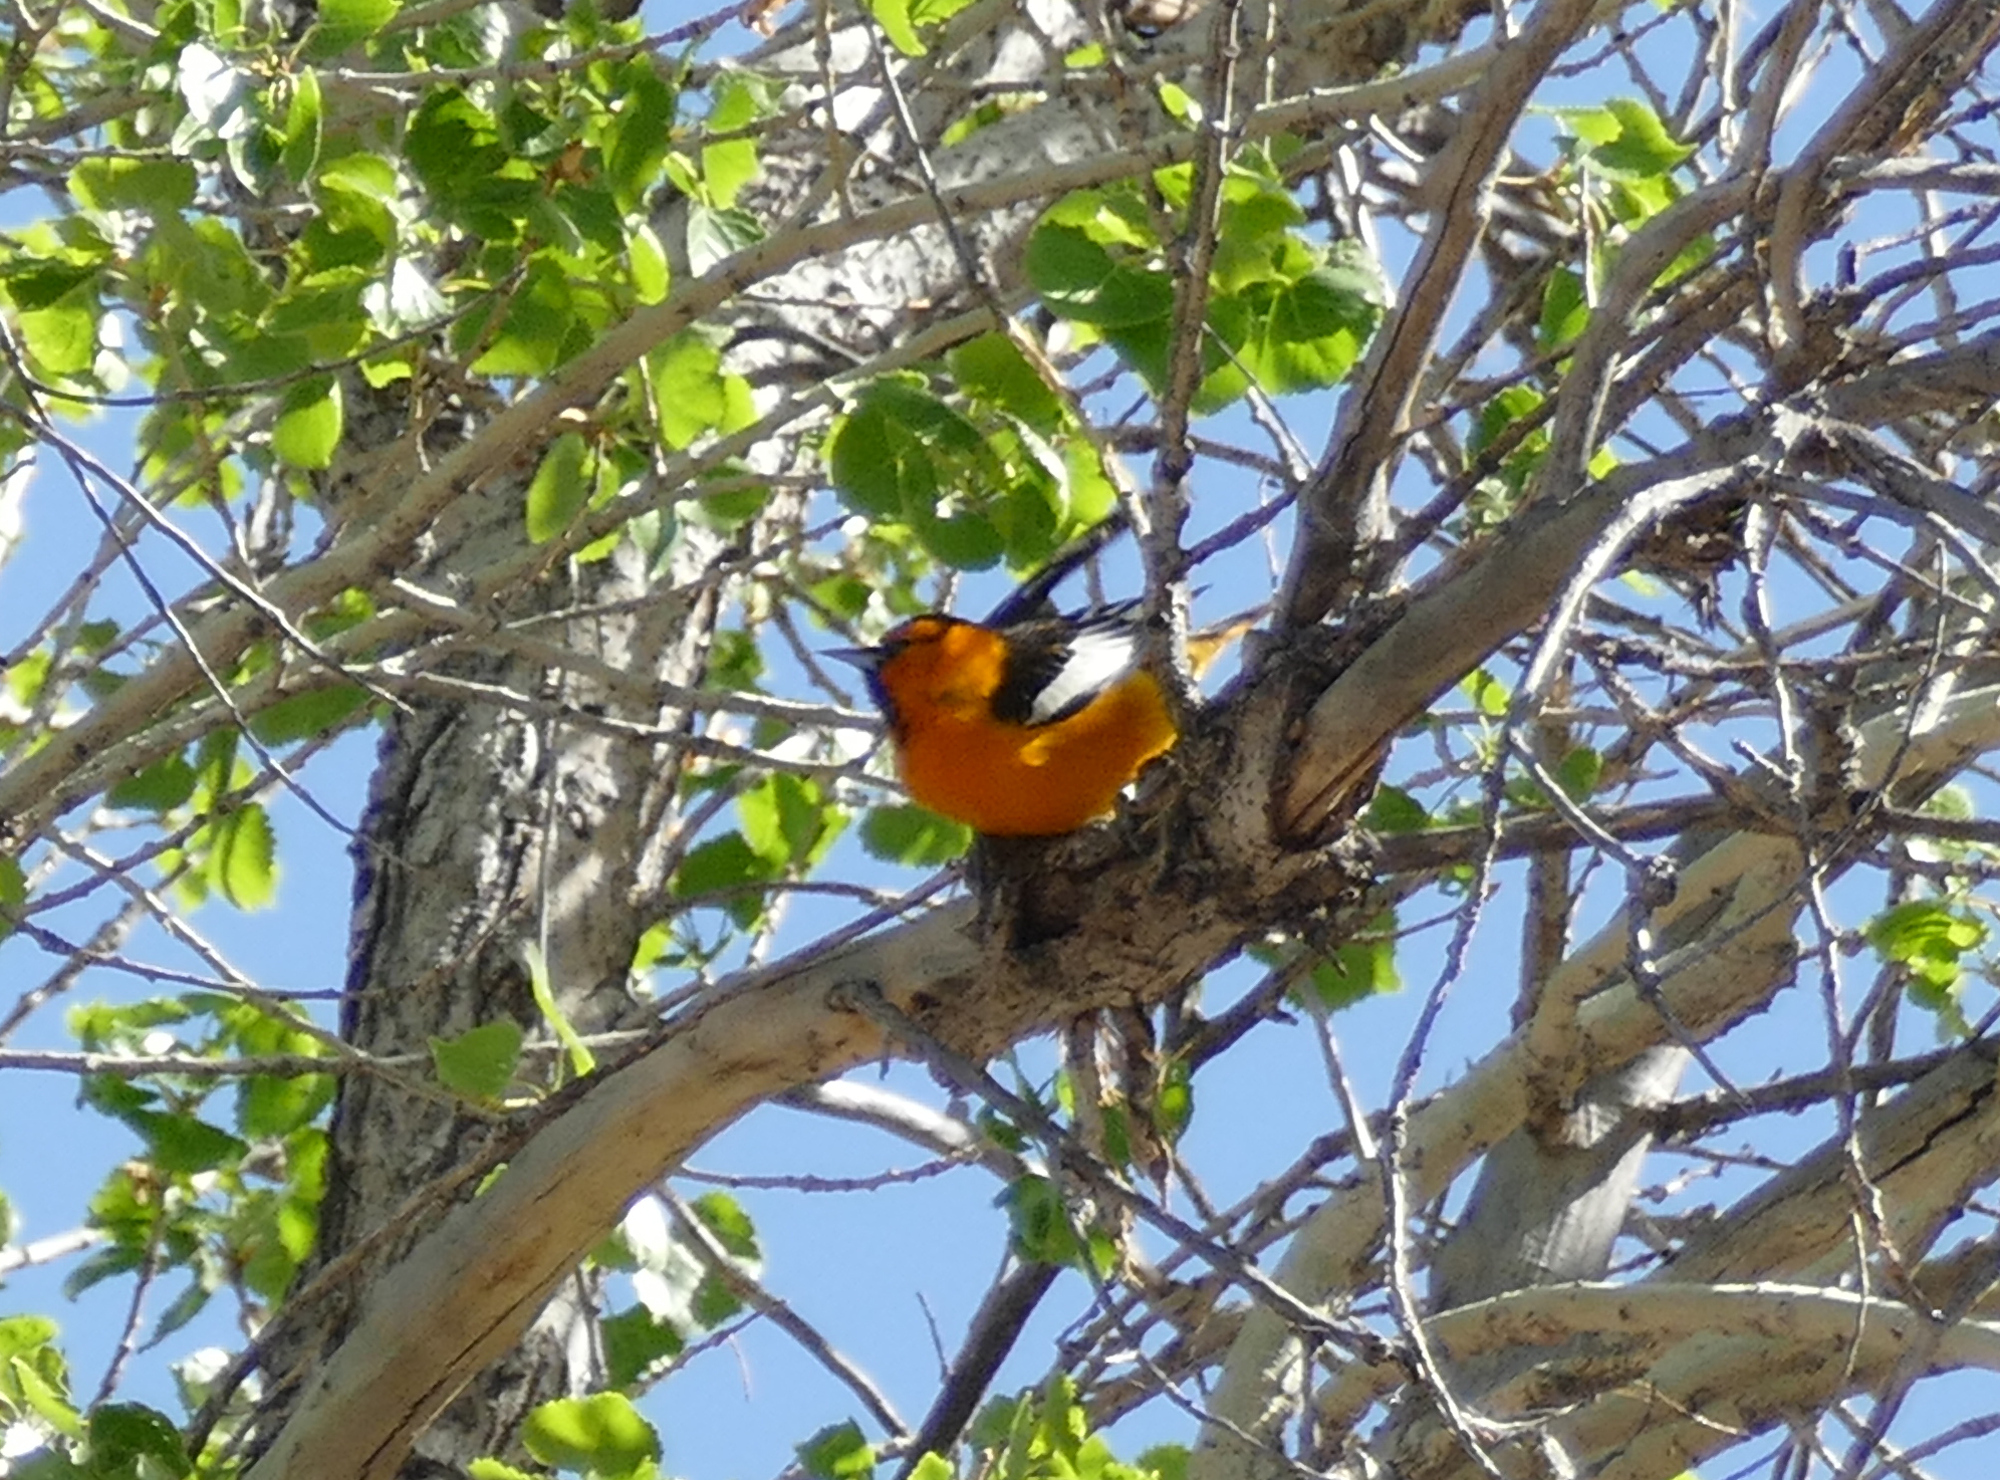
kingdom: Animalia
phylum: Chordata
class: Aves
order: Passeriformes
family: Icteridae
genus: Icterus
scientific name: Icterus bullockii
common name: Bullock's oriole
